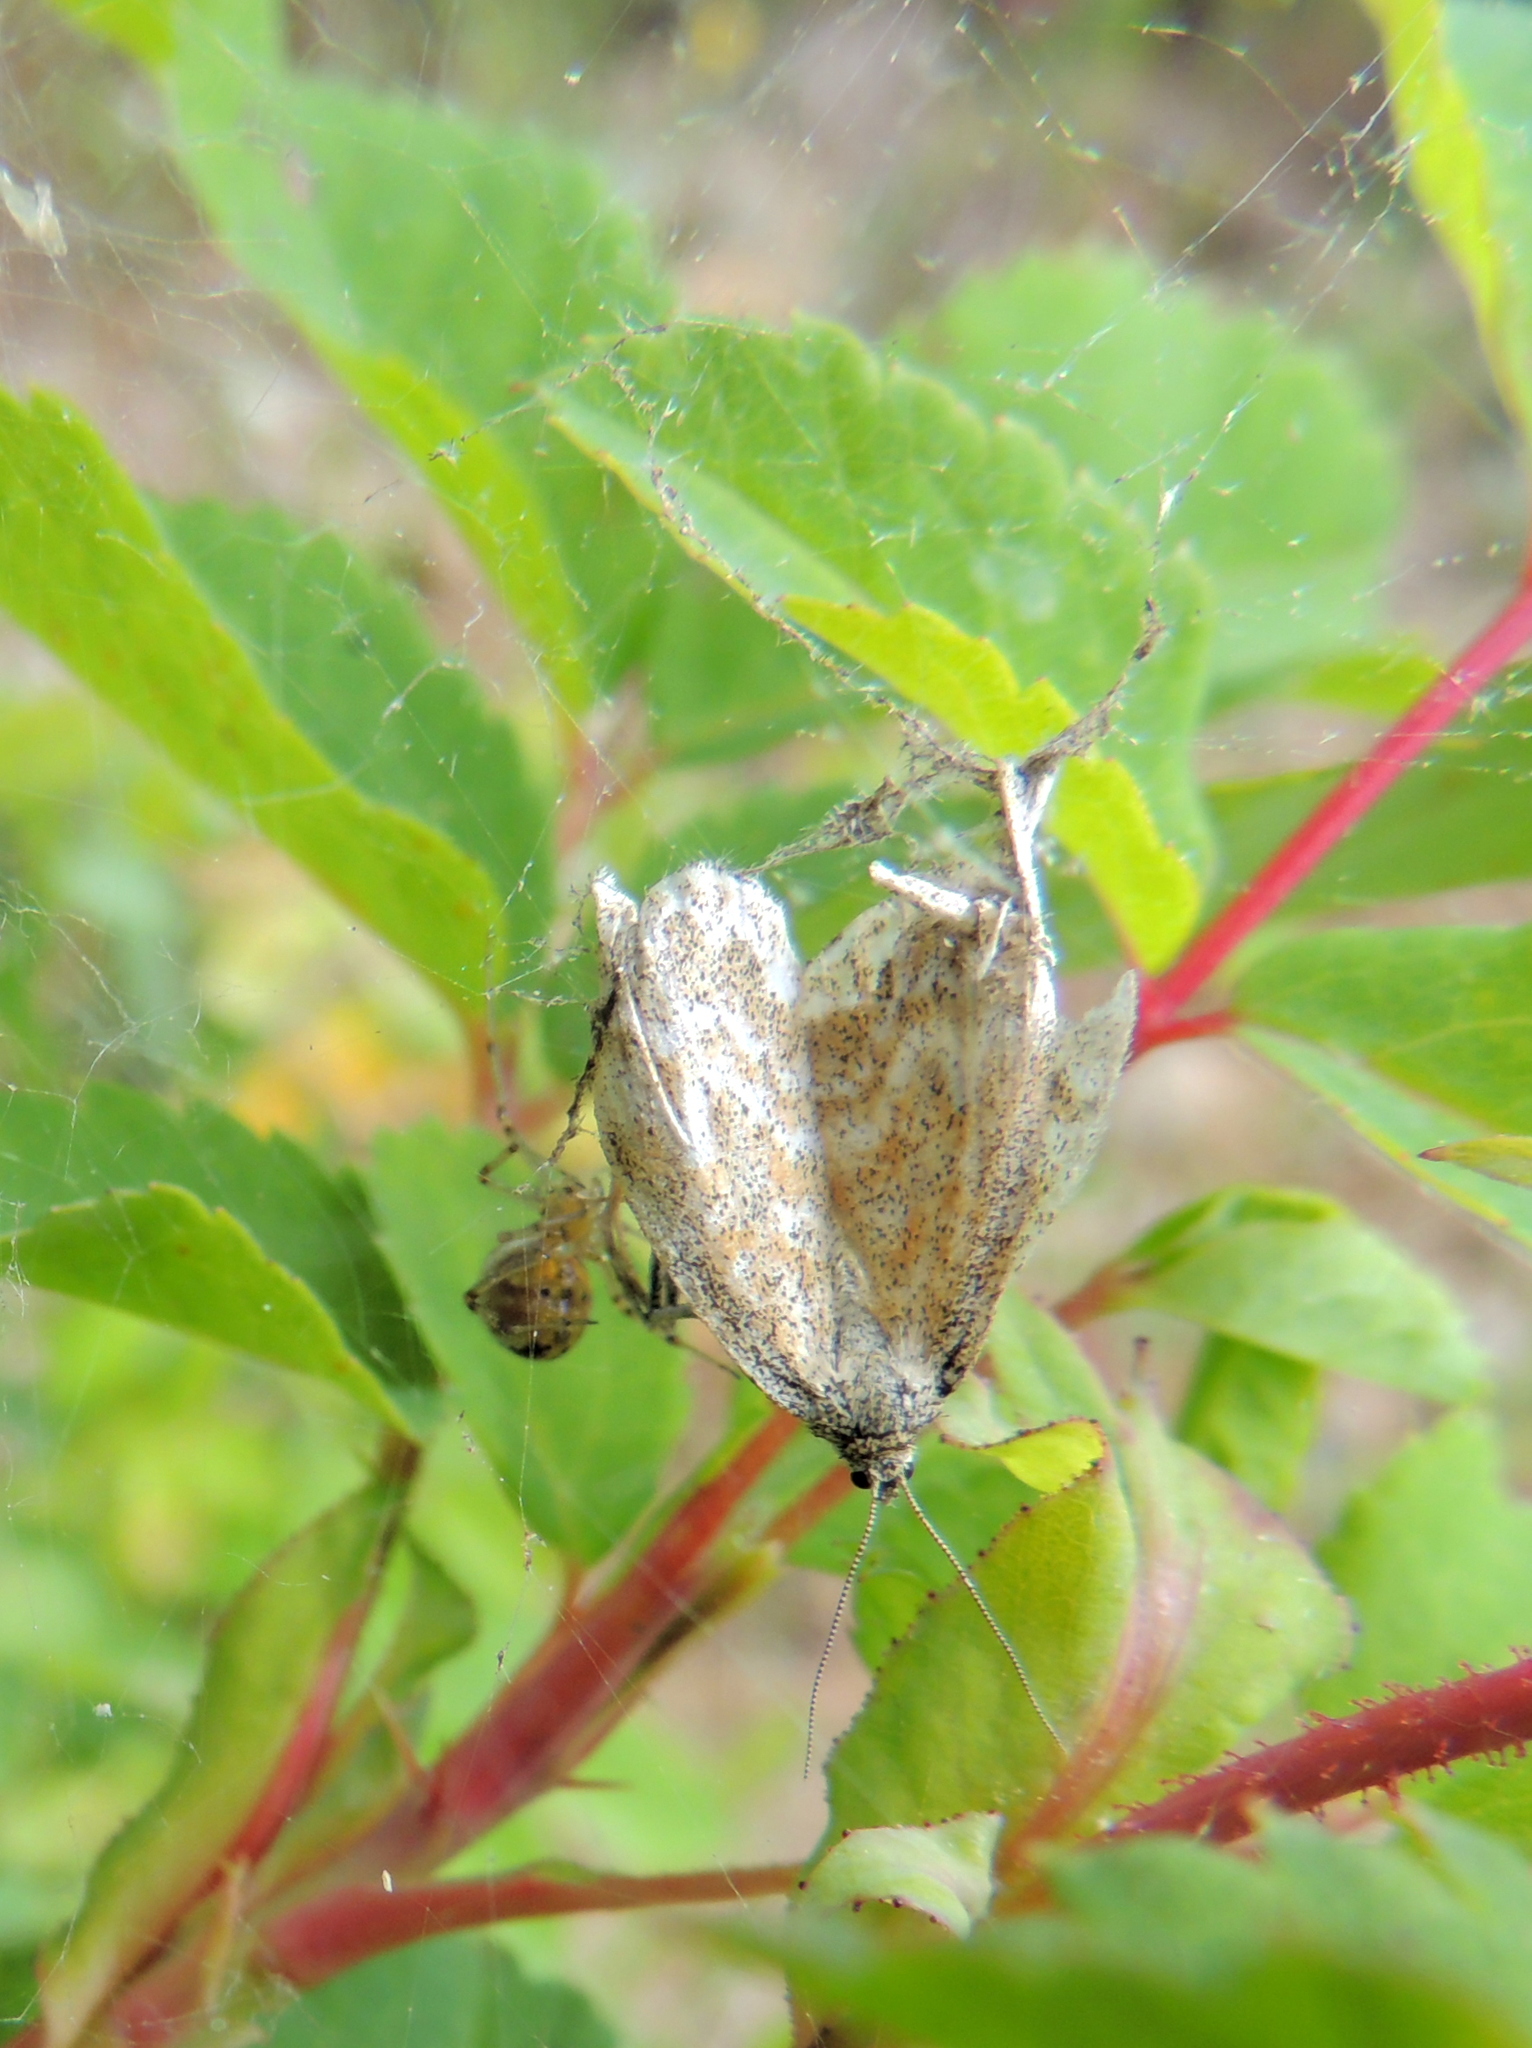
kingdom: Animalia
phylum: Arthropoda
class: Insecta
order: Lepidoptera
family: Geometridae
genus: Scopula
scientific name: Scopula immorata
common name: Lewes wave
